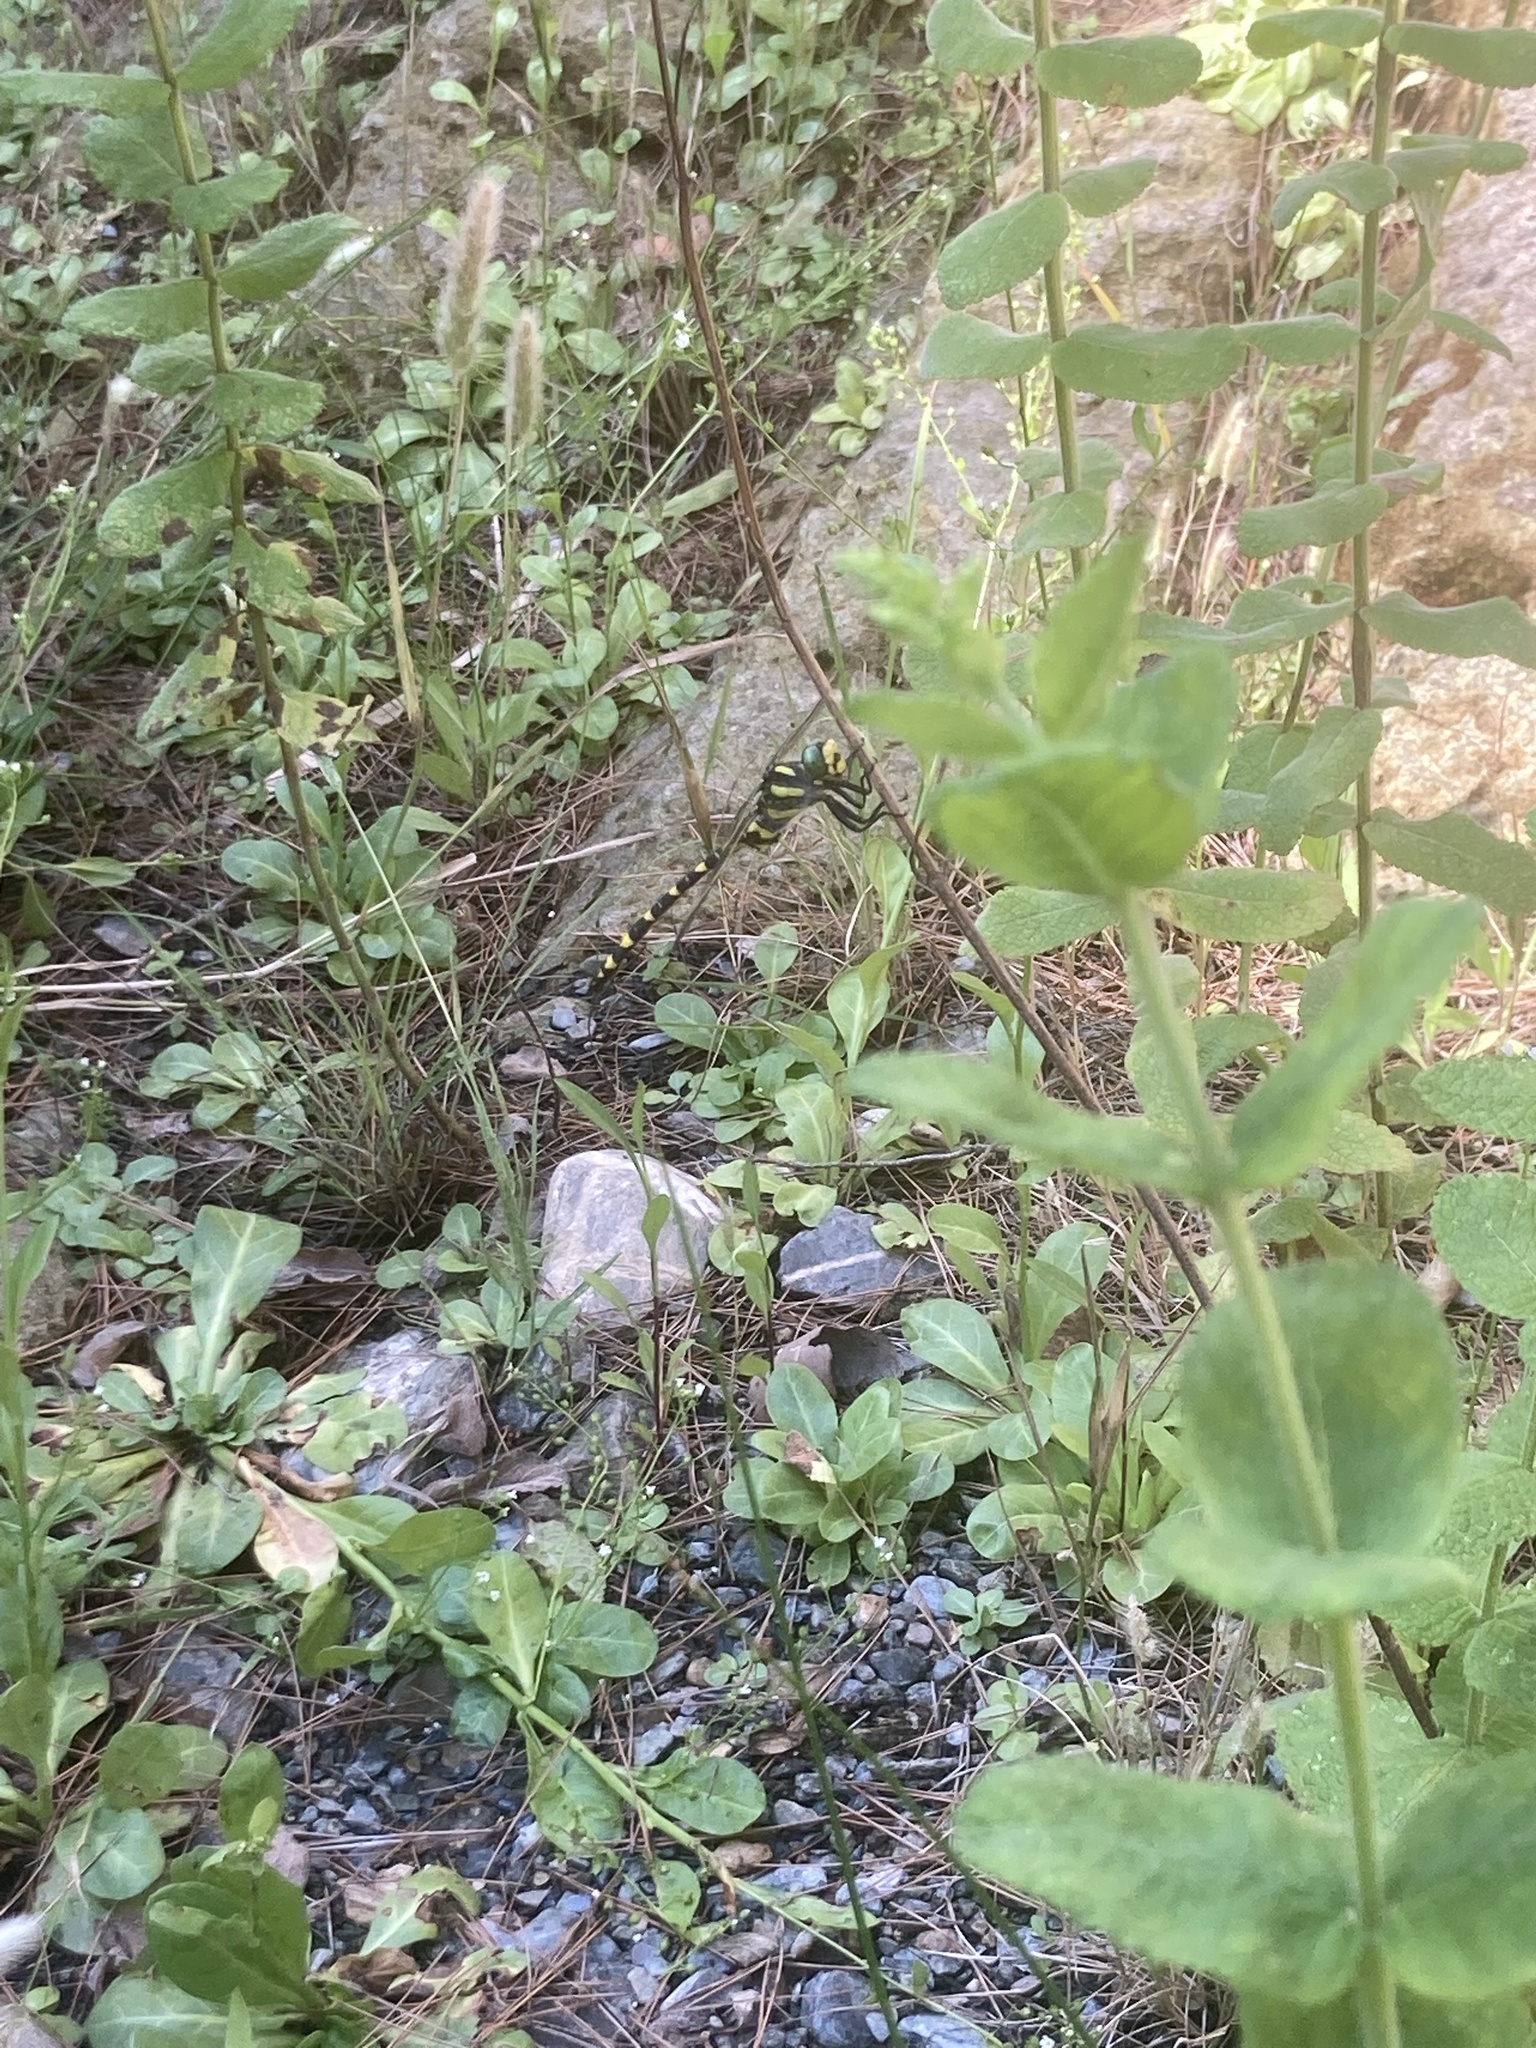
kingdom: Animalia
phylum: Arthropoda
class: Insecta
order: Odonata
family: Cordulegastridae
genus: Cordulegaster
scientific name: Cordulegaster boltonii
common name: Golden-ringed dragonfly
